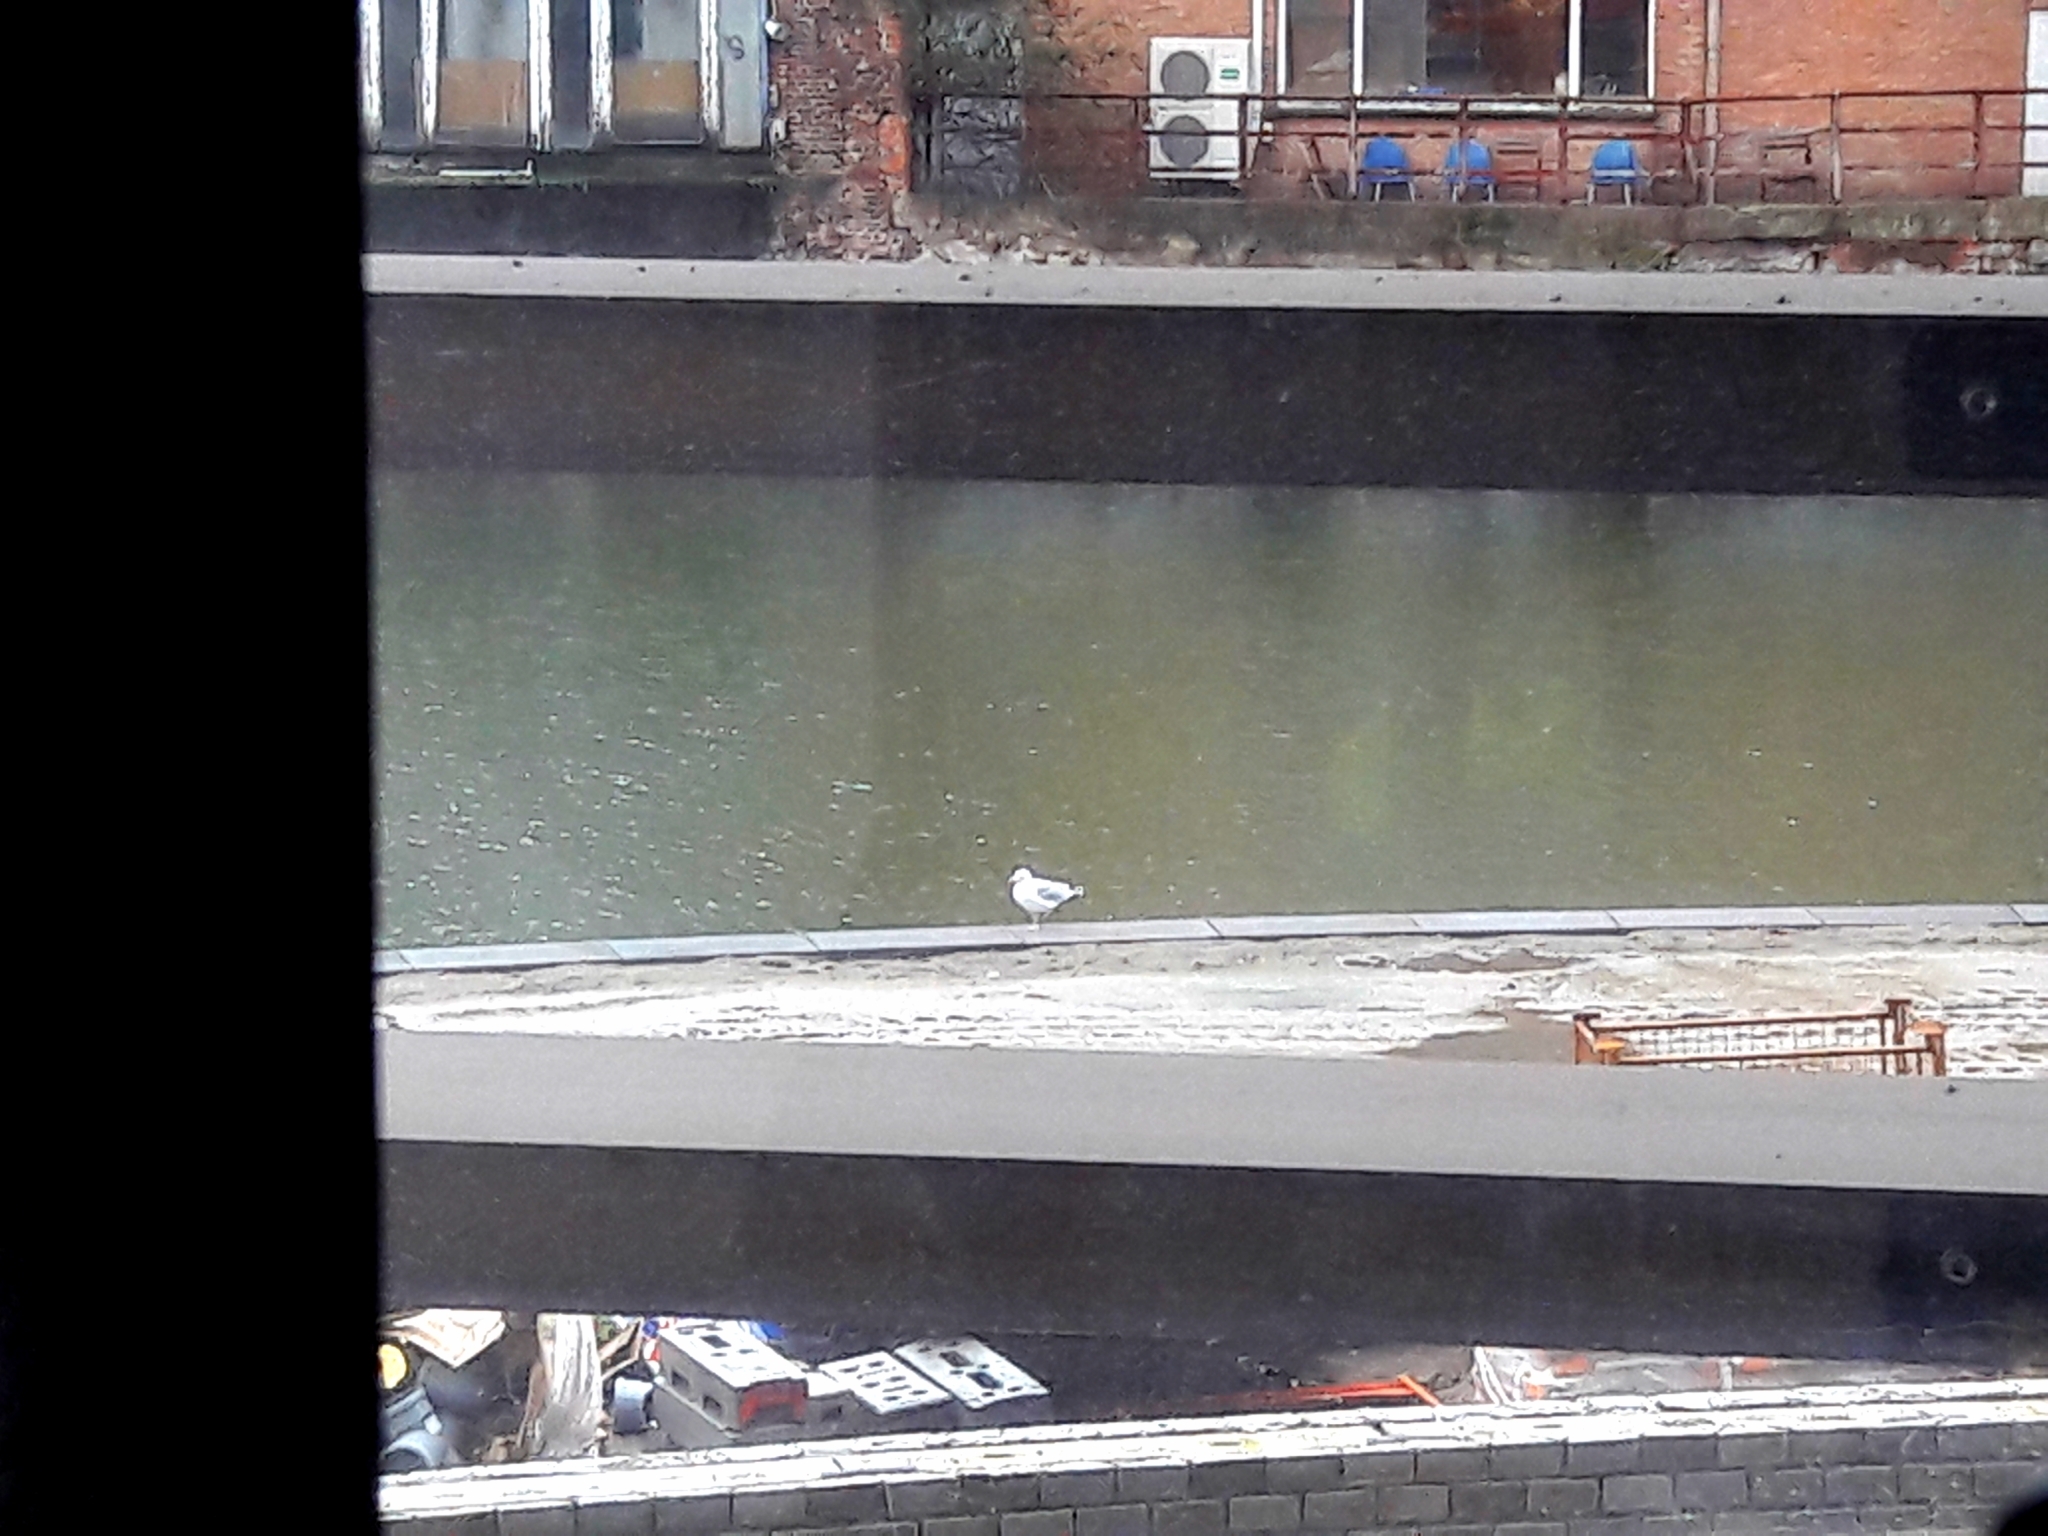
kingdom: Animalia
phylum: Chordata
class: Aves
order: Charadriiformes
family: Laridae
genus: Larus
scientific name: Larus argentatus
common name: Herring gull
